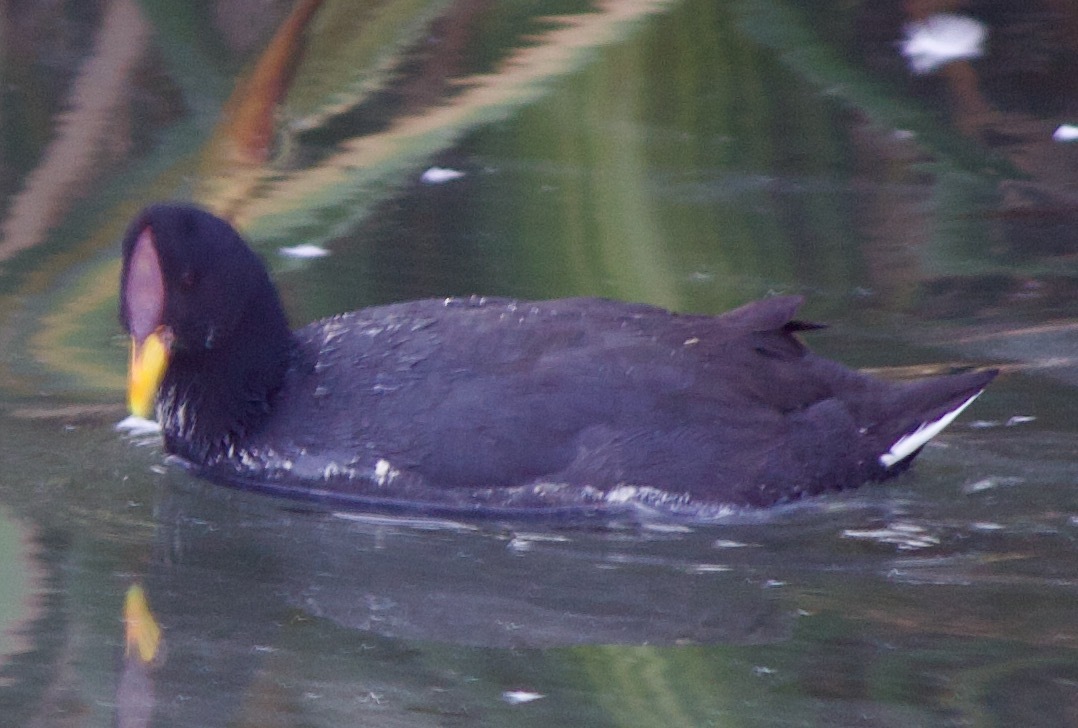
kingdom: Animalia
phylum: Chordata
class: Aves
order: Gruiformes
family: Rallidae
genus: Fulica
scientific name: Fulica rufifrons
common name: Red-fronted coot
